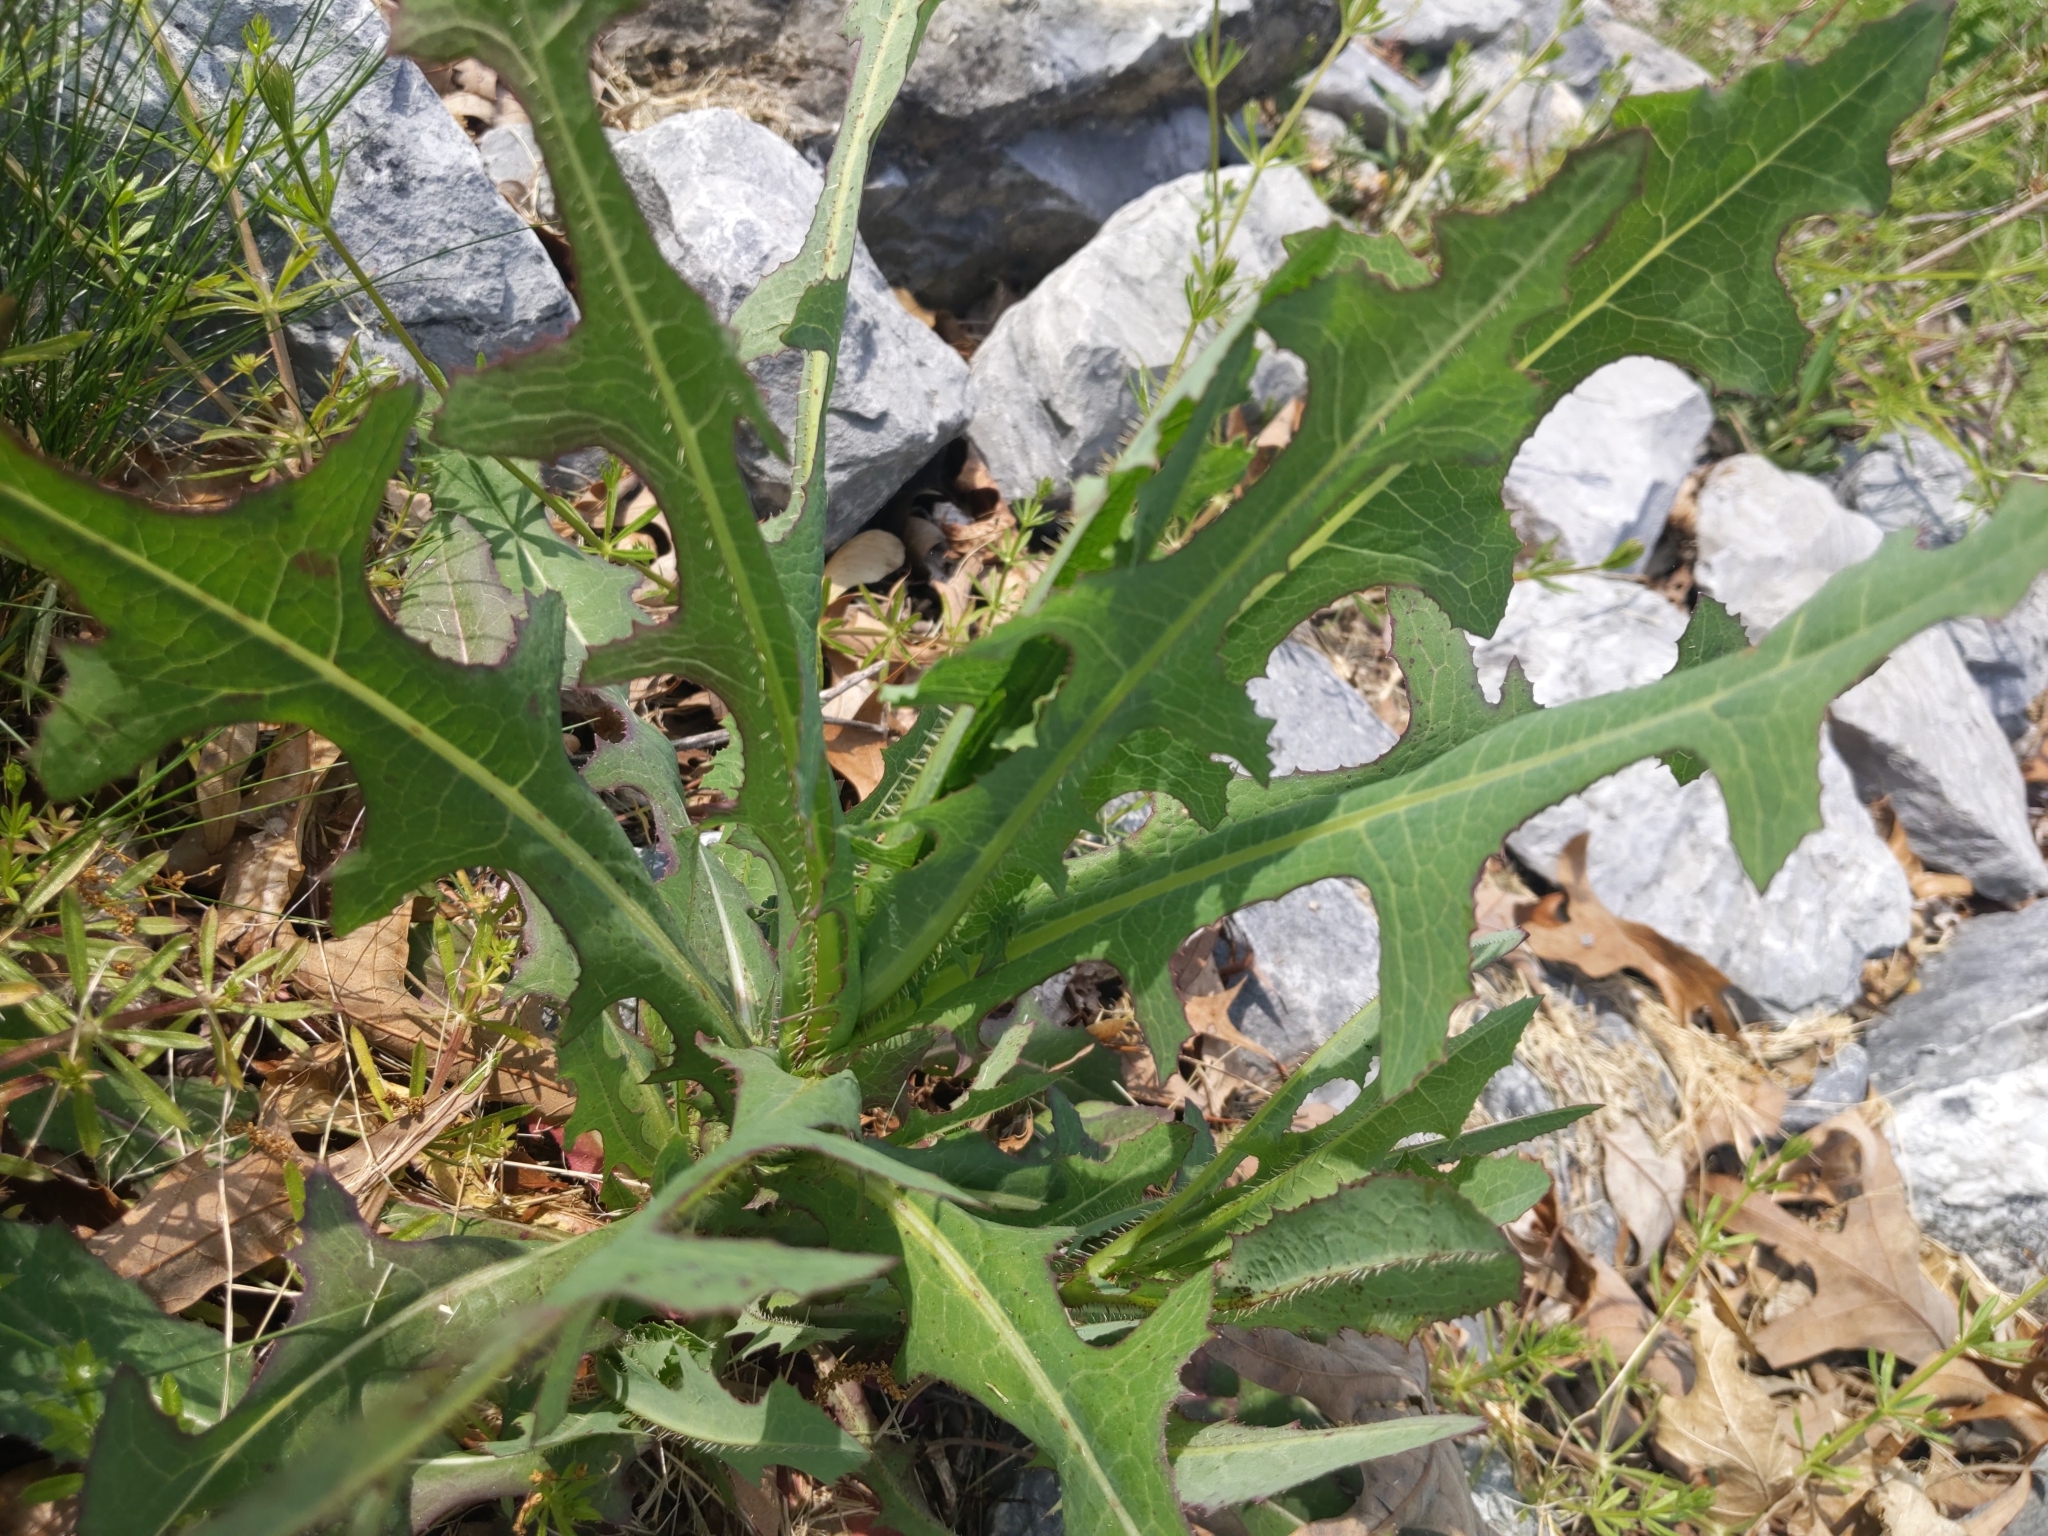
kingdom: Plantae
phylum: Tracheophyta
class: Magnoliopsida
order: Asterales
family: Asteraceae
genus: Lactuca
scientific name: Lactuca serriola
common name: Prickly lettuce
